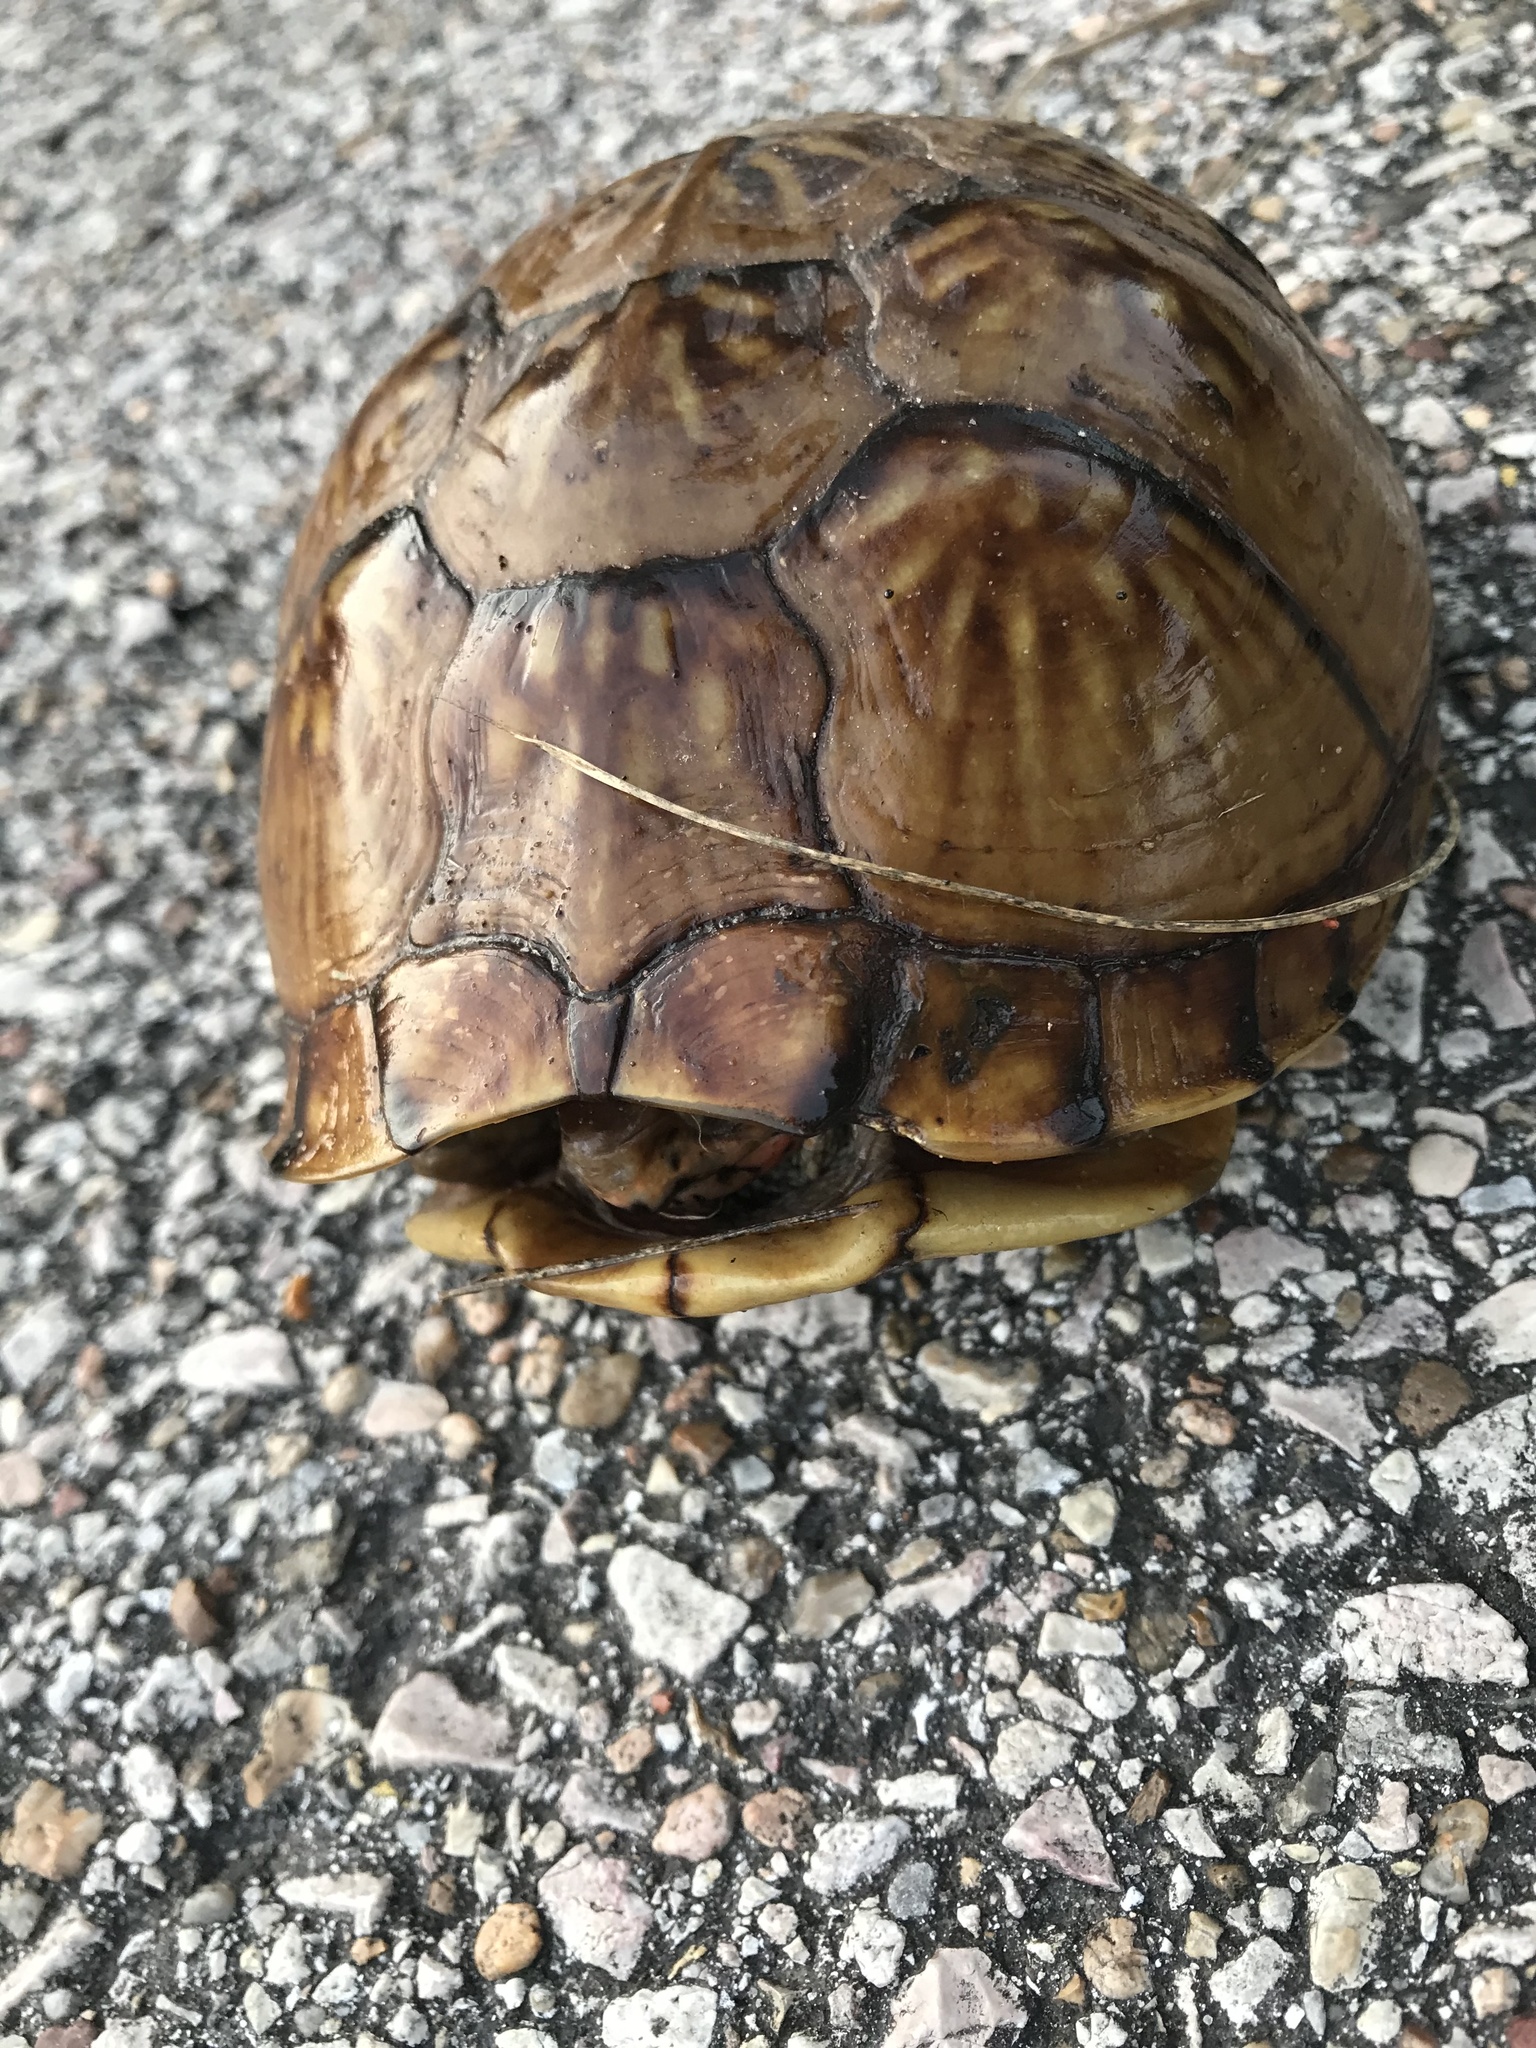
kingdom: Animalia
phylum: Chordata
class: Testudines
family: Emydidae
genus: Terrapene
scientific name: Terrapene carolina
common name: Common box turtle
